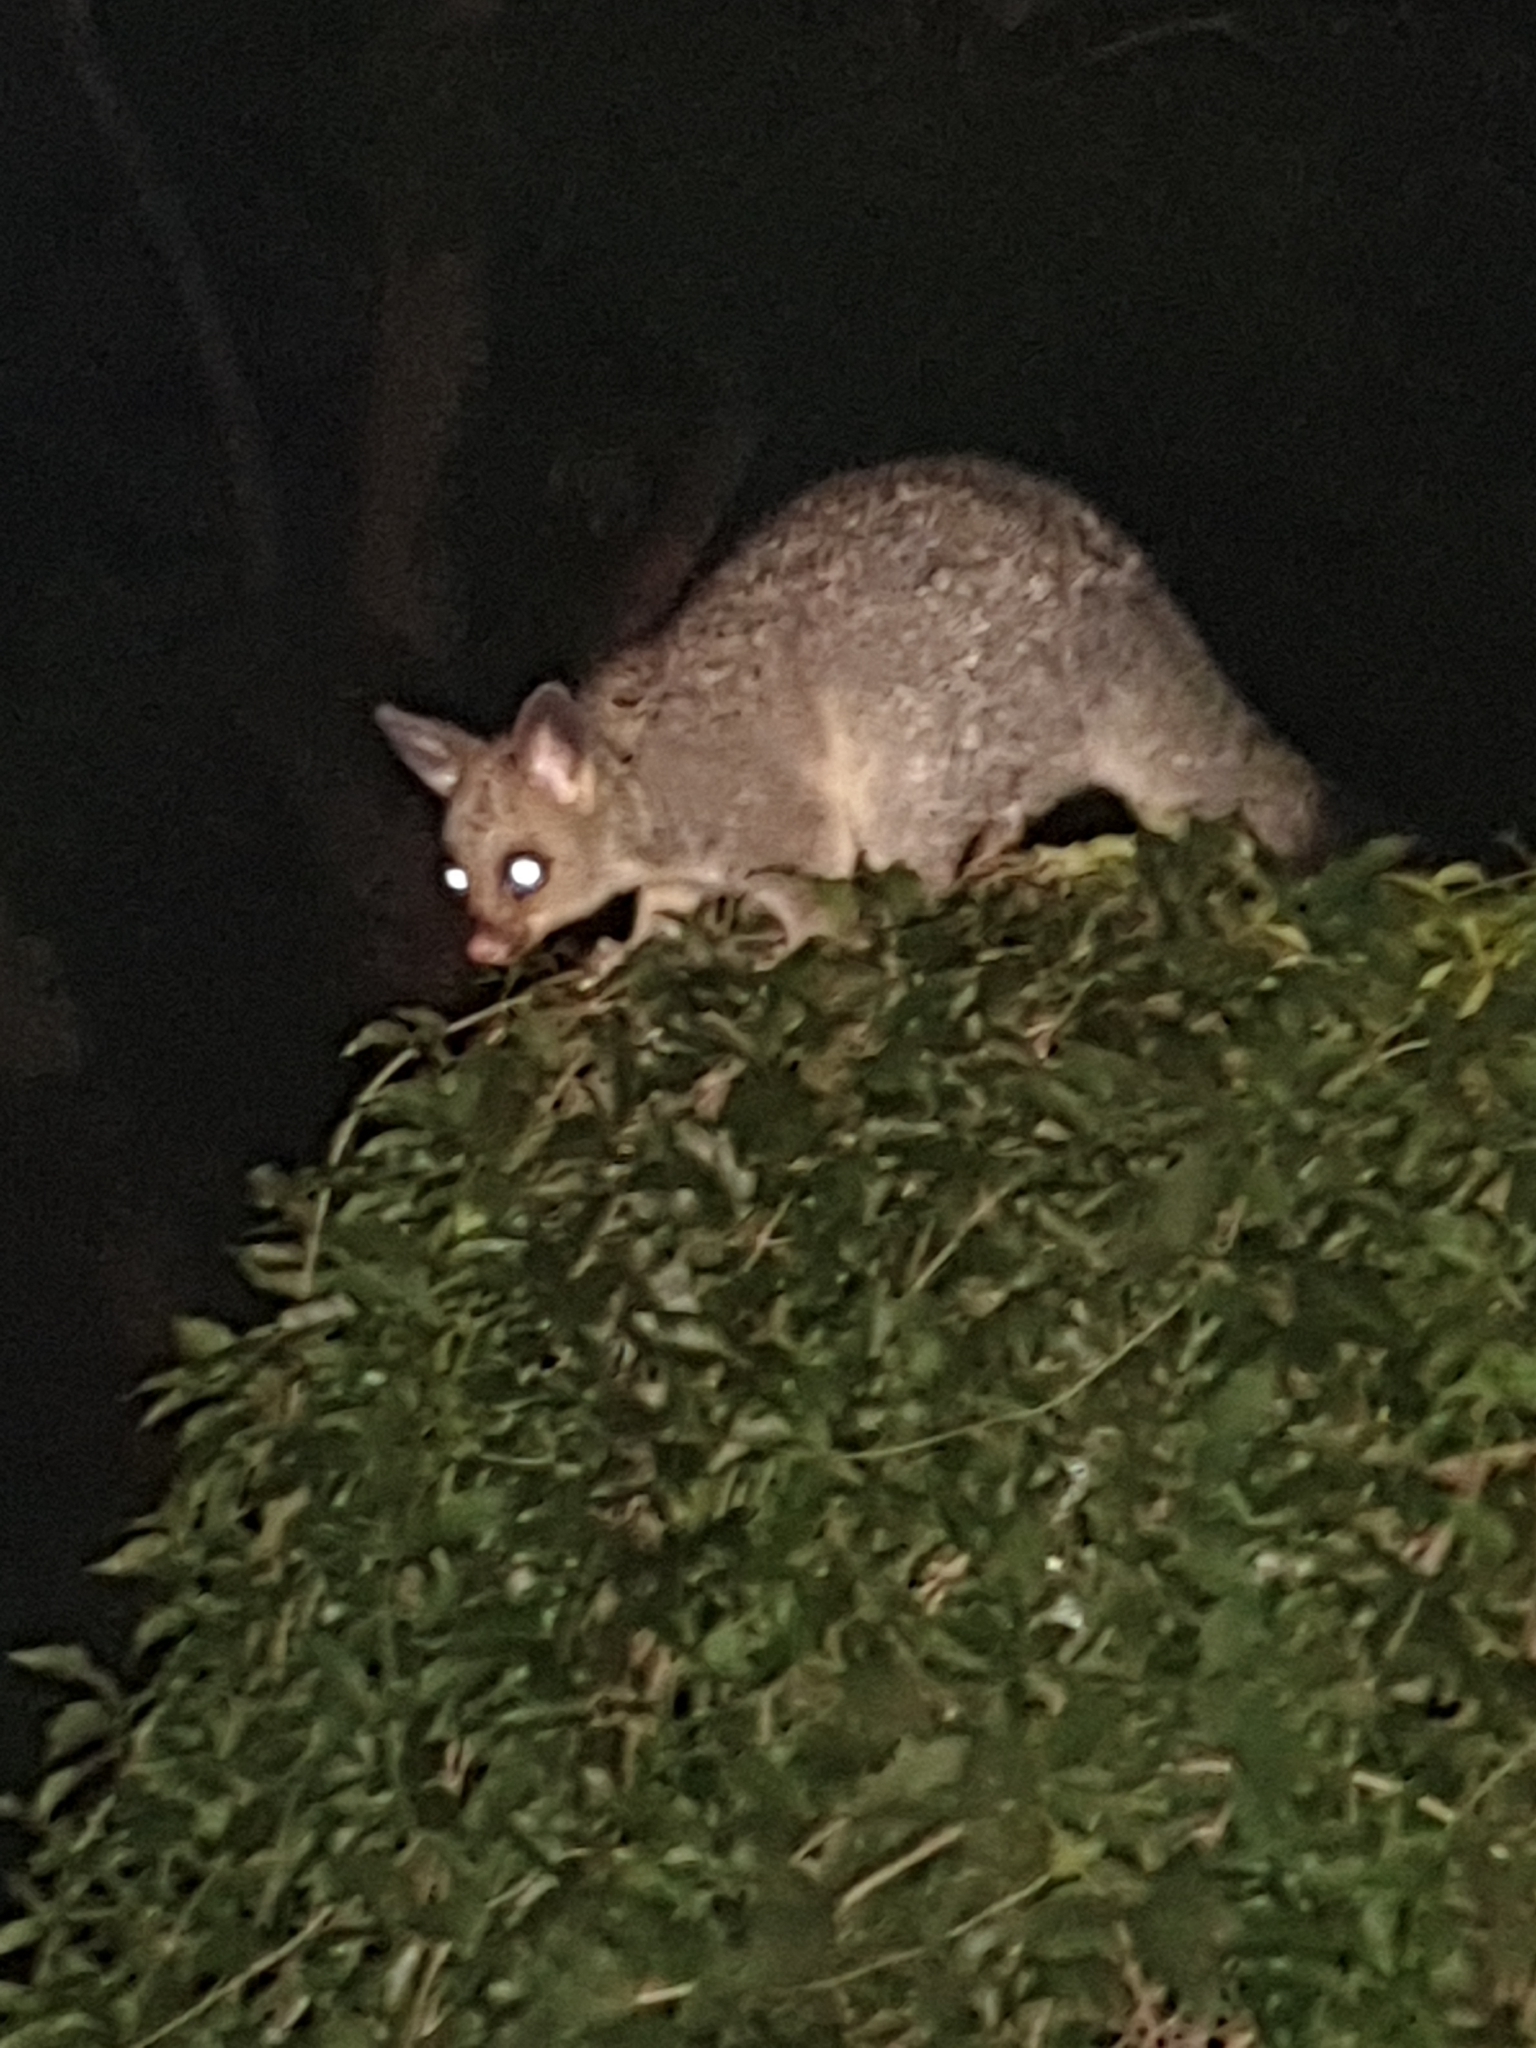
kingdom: Animalia
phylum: Chordata
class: Mammalia
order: Diprotodontia
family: Phalangeridae
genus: Trichosurus
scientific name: Trichosurus vulpecula
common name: Common brushtail
